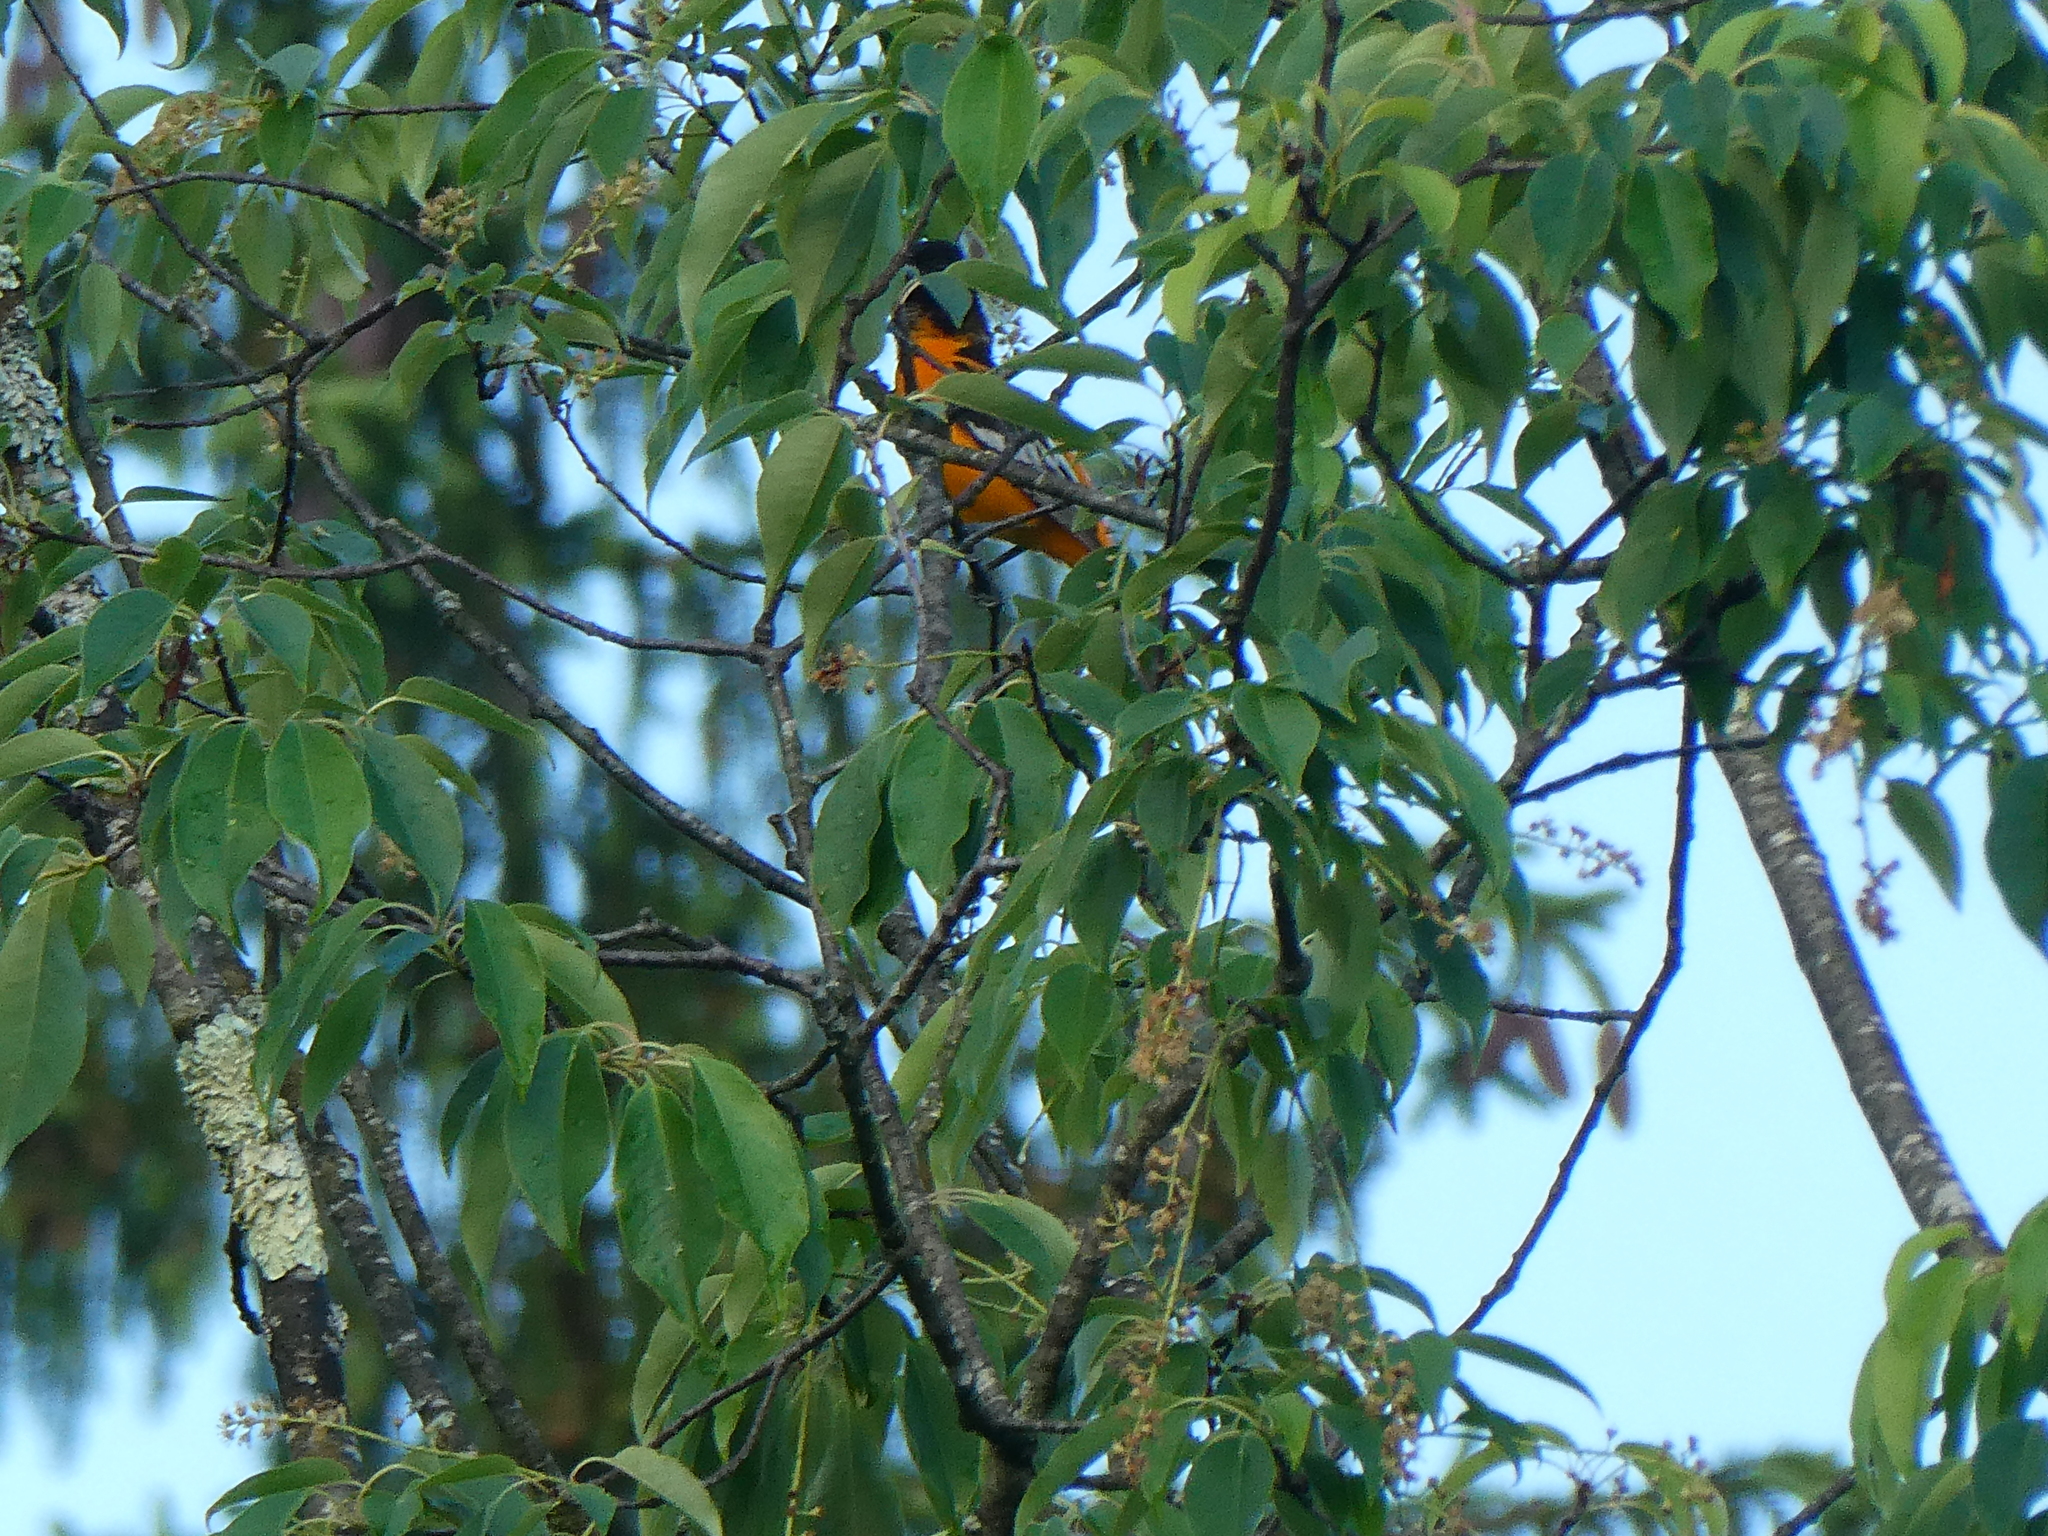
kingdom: Animalia
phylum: Chordata
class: Aves
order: Passeriformes
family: Icteridae
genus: Icterus
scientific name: Icterus galbula
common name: Baltimore oriole
